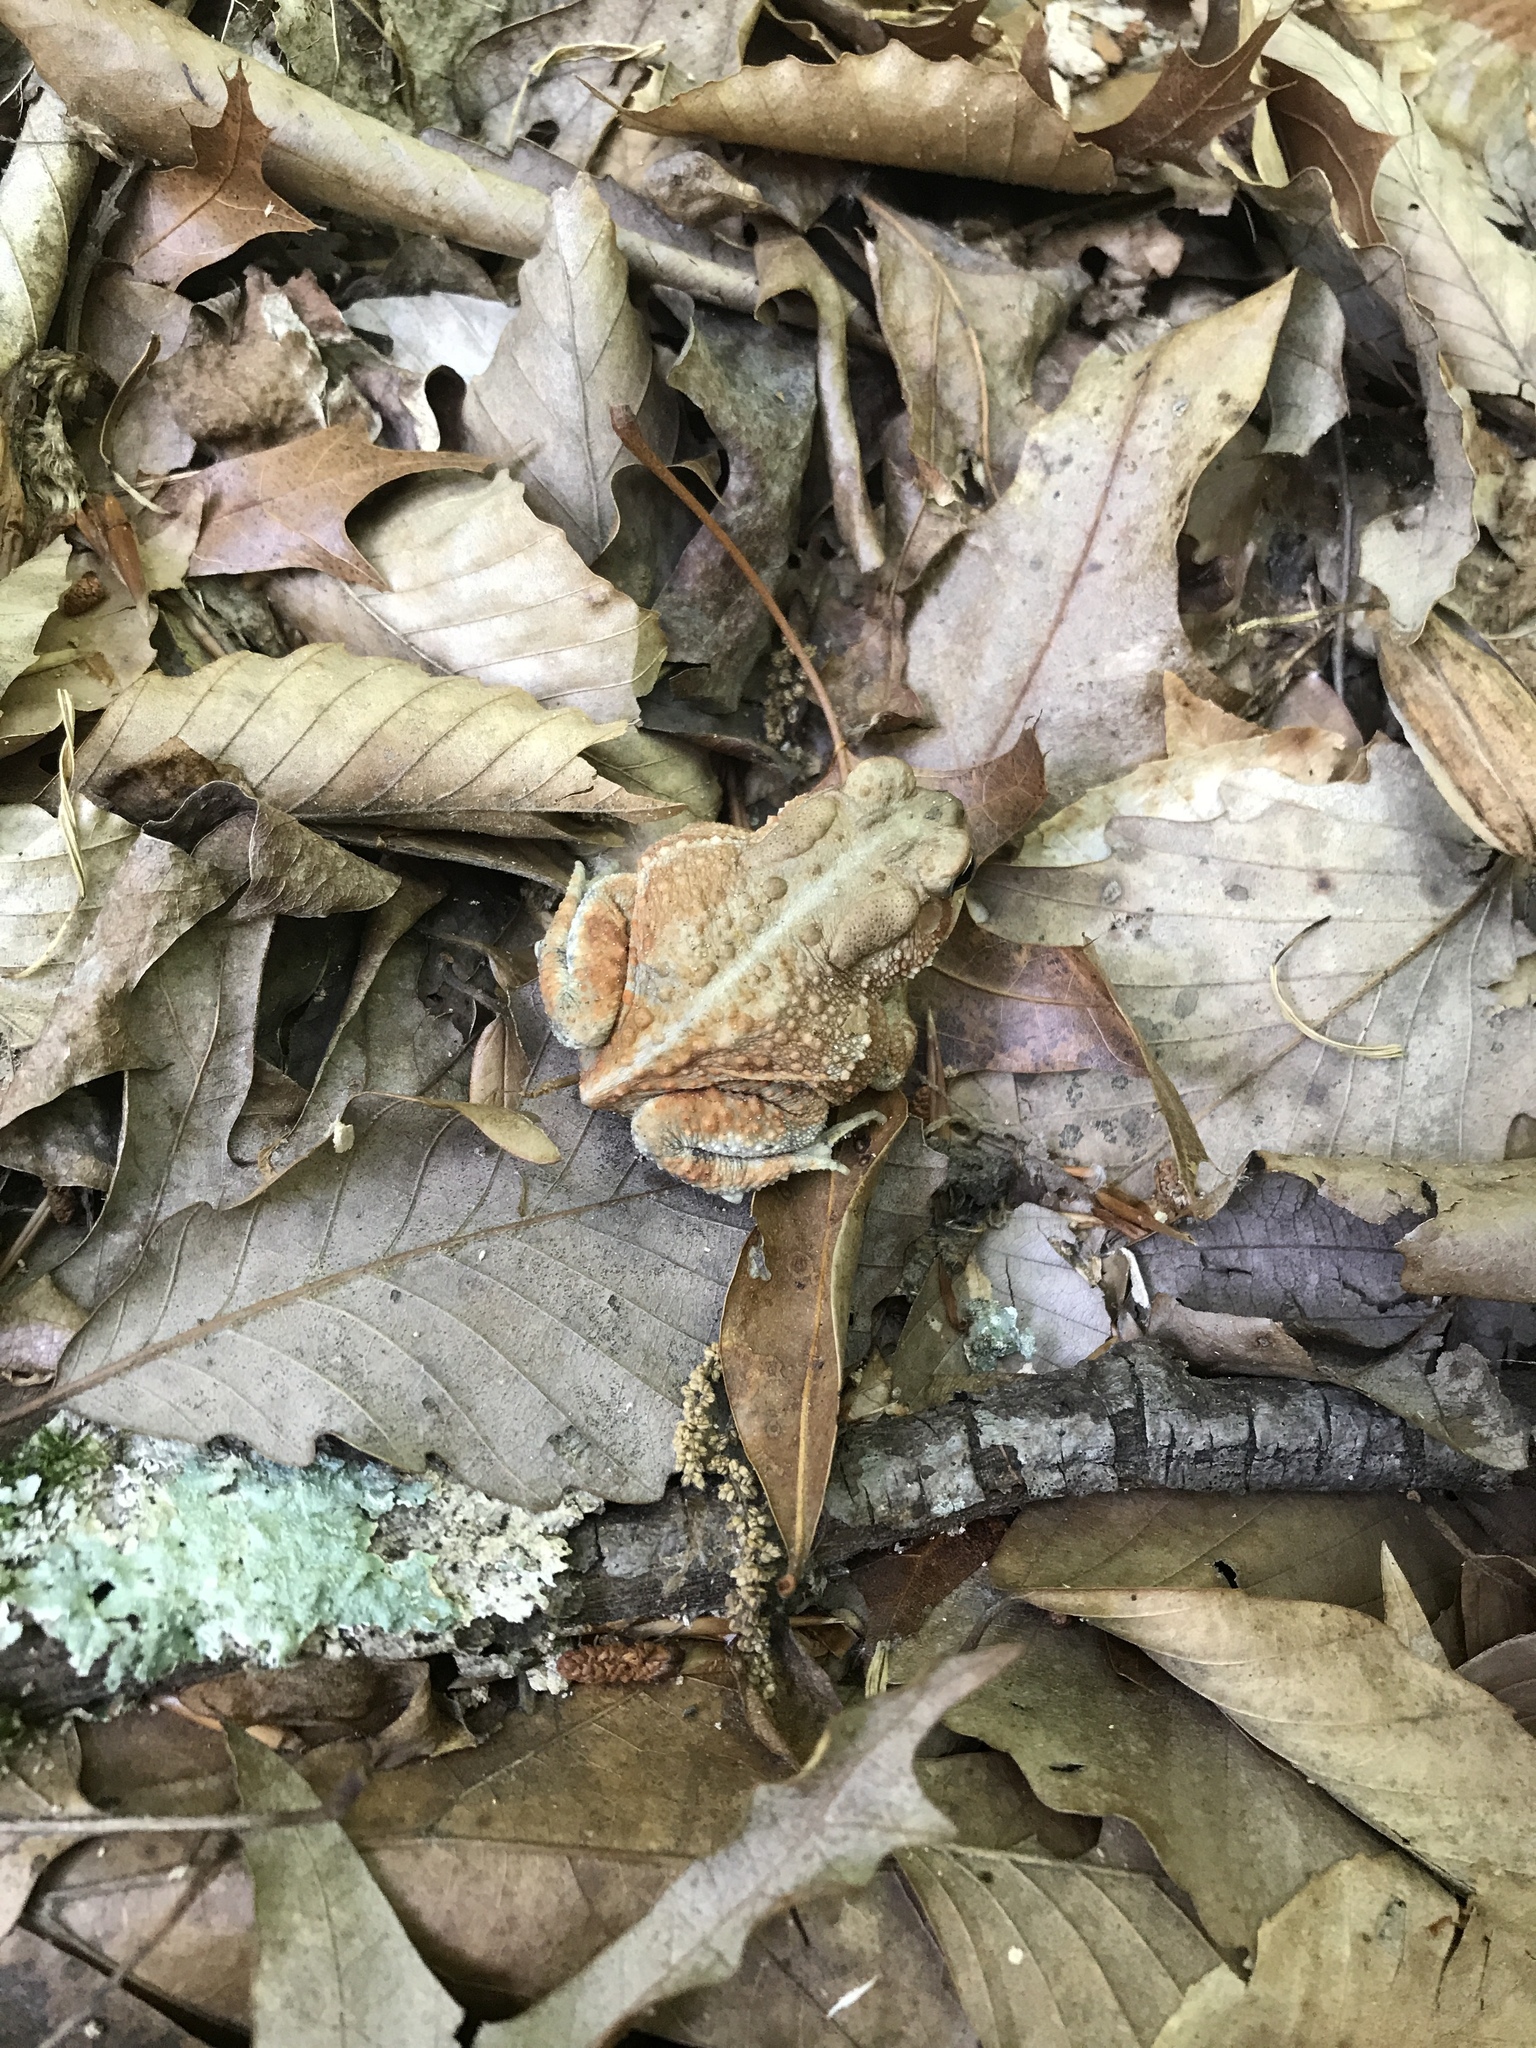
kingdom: Animalia
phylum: Chordata
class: Amphibia
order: Anura
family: Bufonidae
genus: Anaxyrus
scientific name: Anaxyrus americanus
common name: American toad
